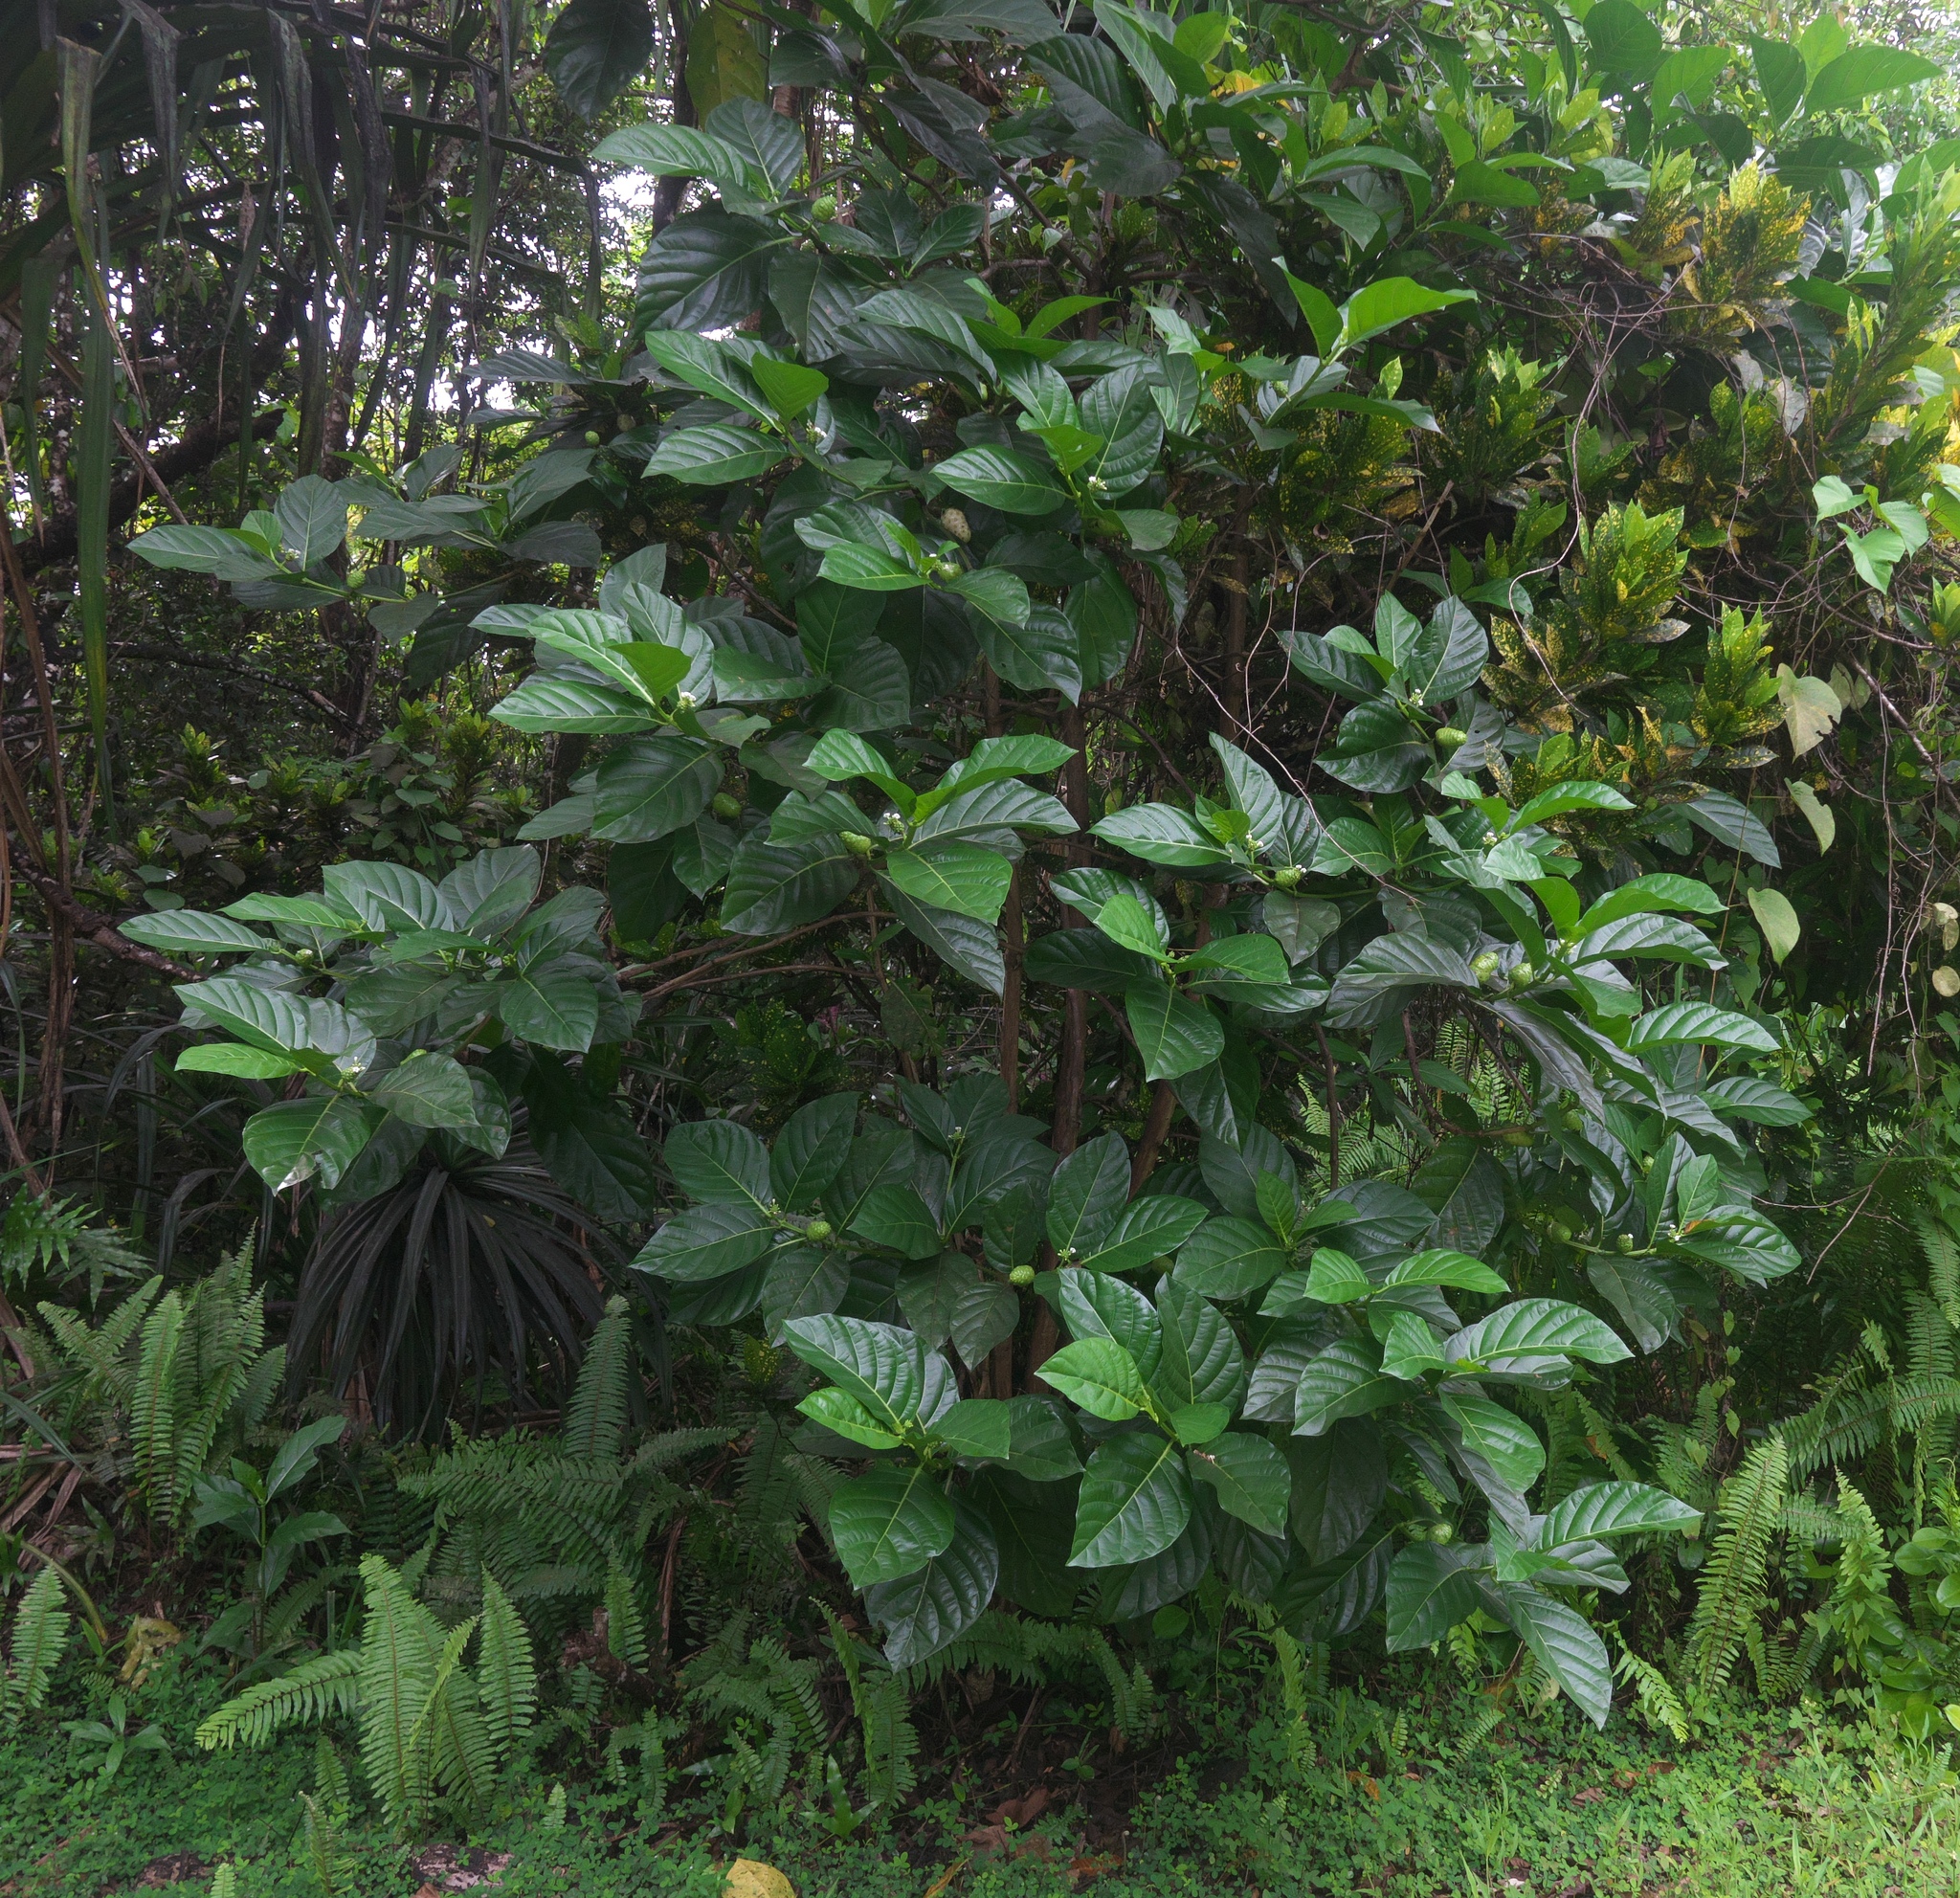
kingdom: Plantae
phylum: Tracheophyta
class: Magnoliopsida
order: Gentianales
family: Rubiaceae
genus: Morinda
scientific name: Morinda citrifolia
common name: Indian-mulberry
